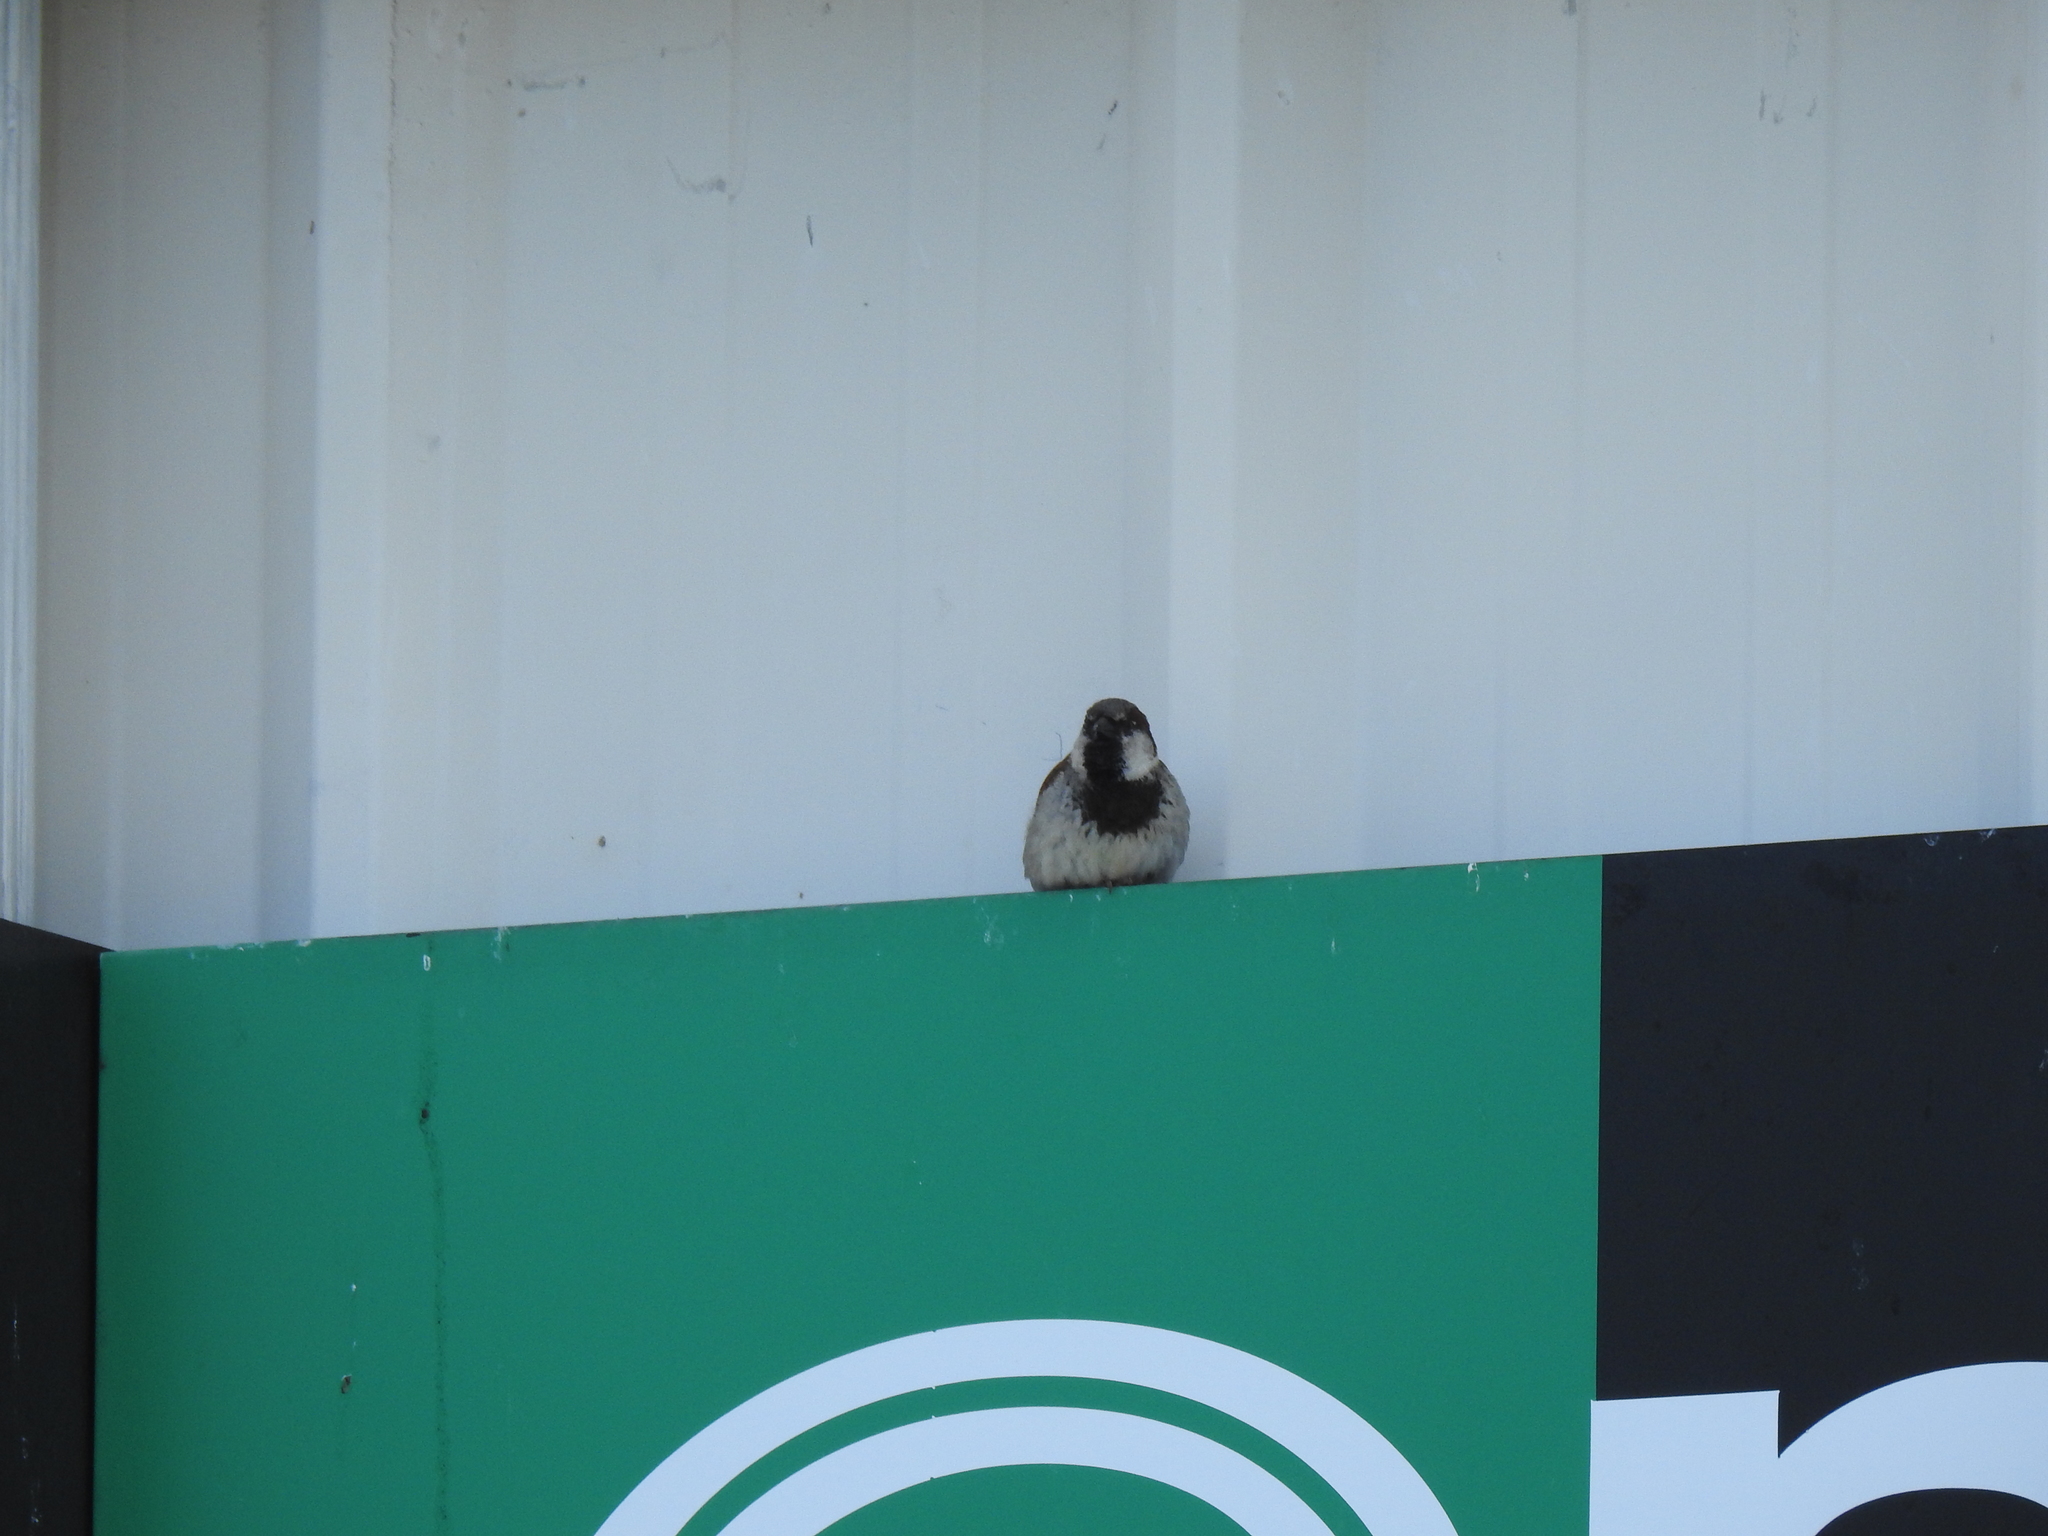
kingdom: Animalia
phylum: Chordata
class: Aves
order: Passeriformes
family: Passeridae
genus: Passer
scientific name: Passer domesticus
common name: House sparrow
